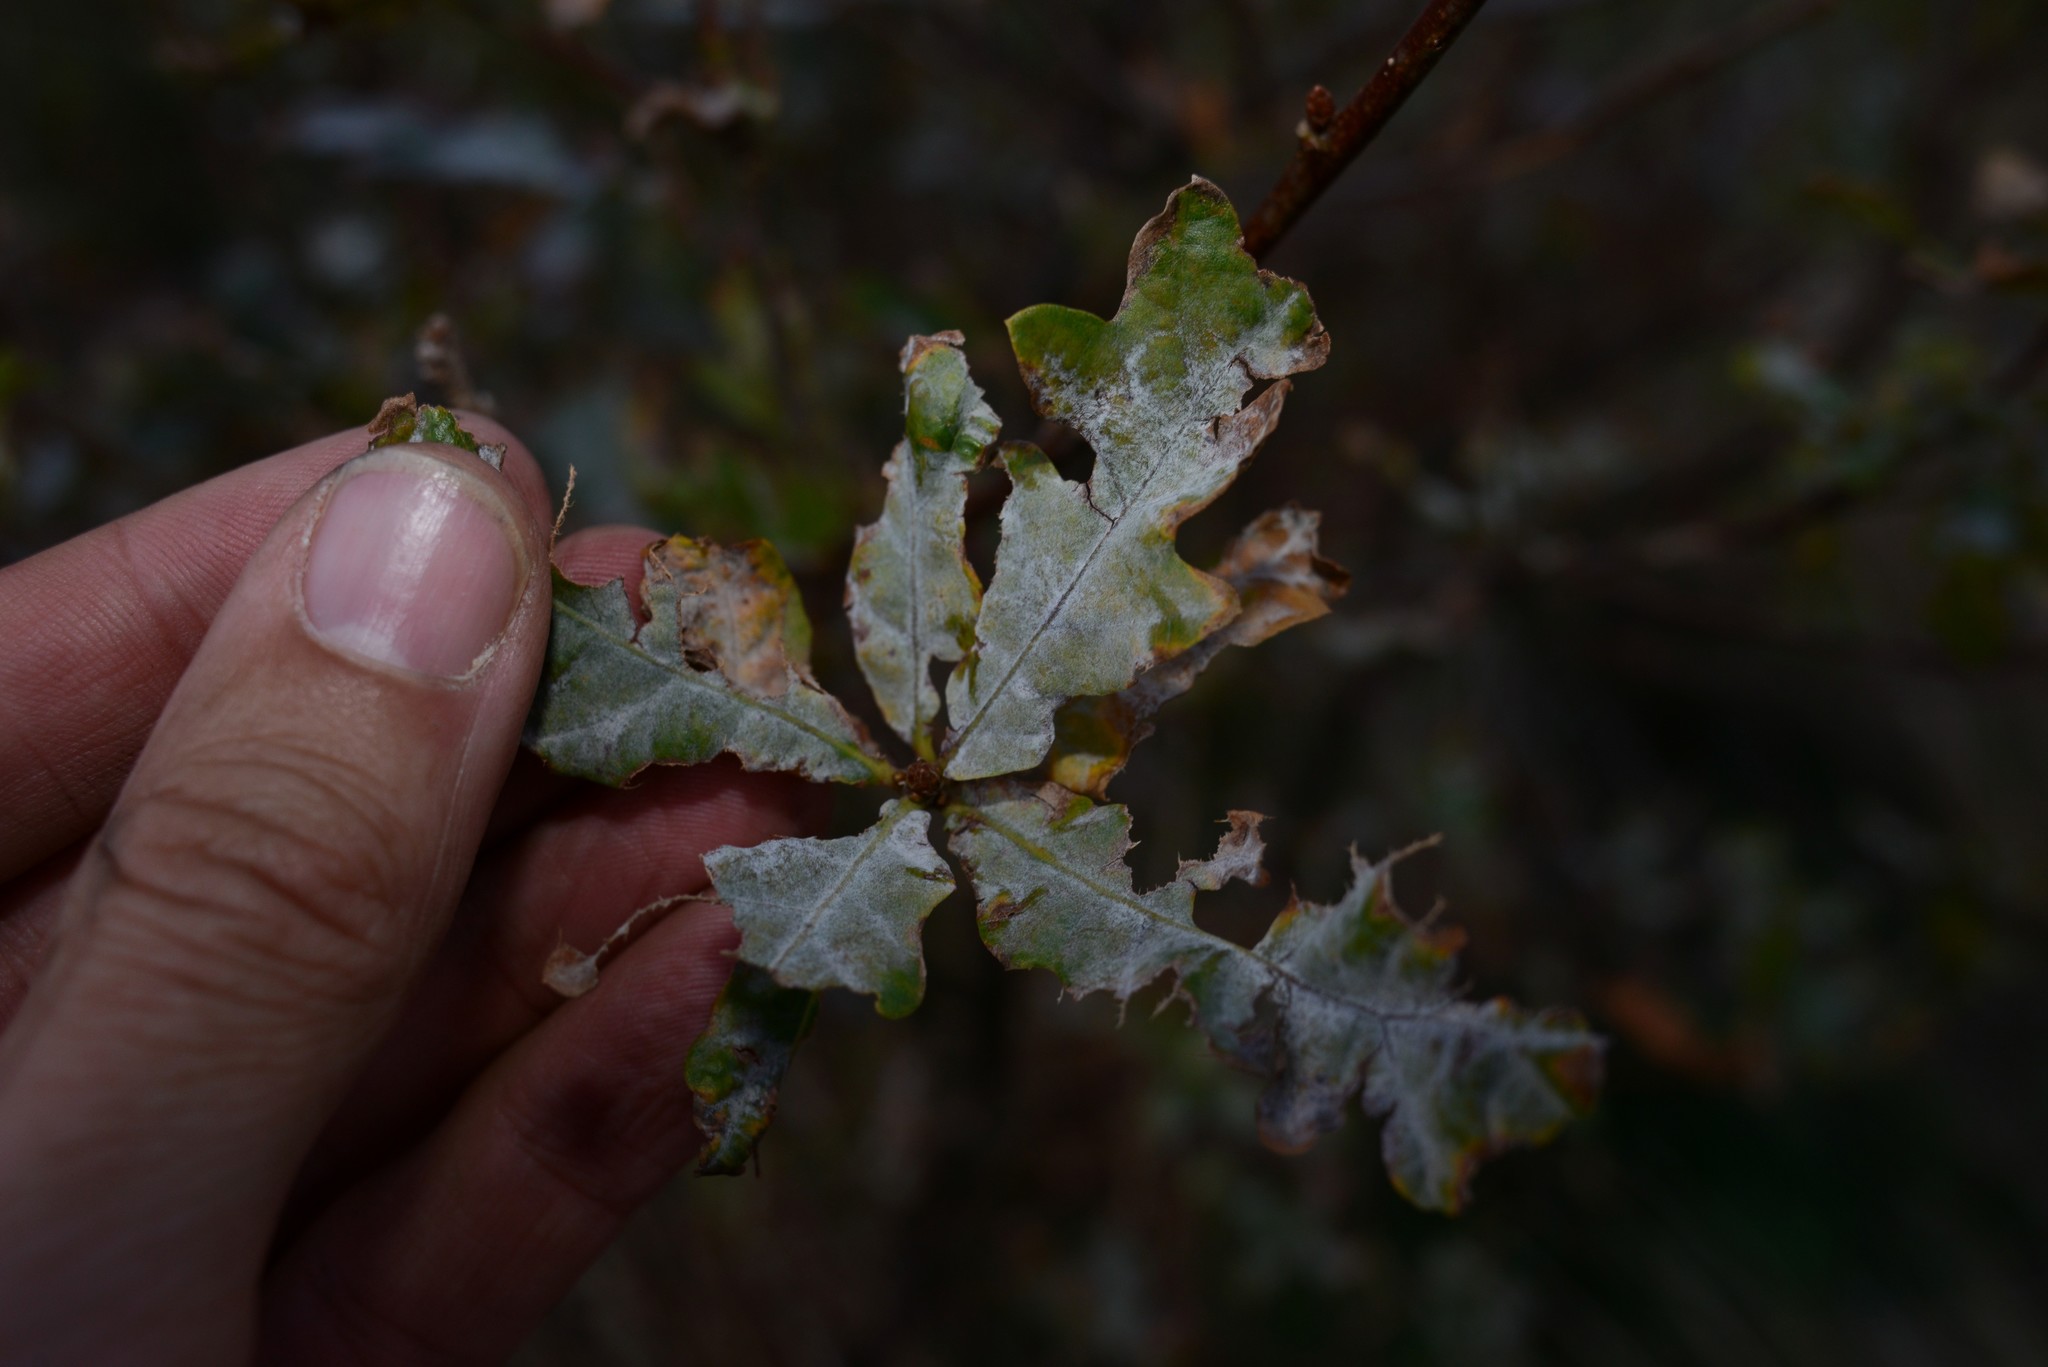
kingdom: Fungi
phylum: Ascomycota
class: Leotiomycetes
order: Helotiales
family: Erysiphaceae
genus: Erysiphe
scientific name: Erysiphe alphitoides
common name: Oak mildew
